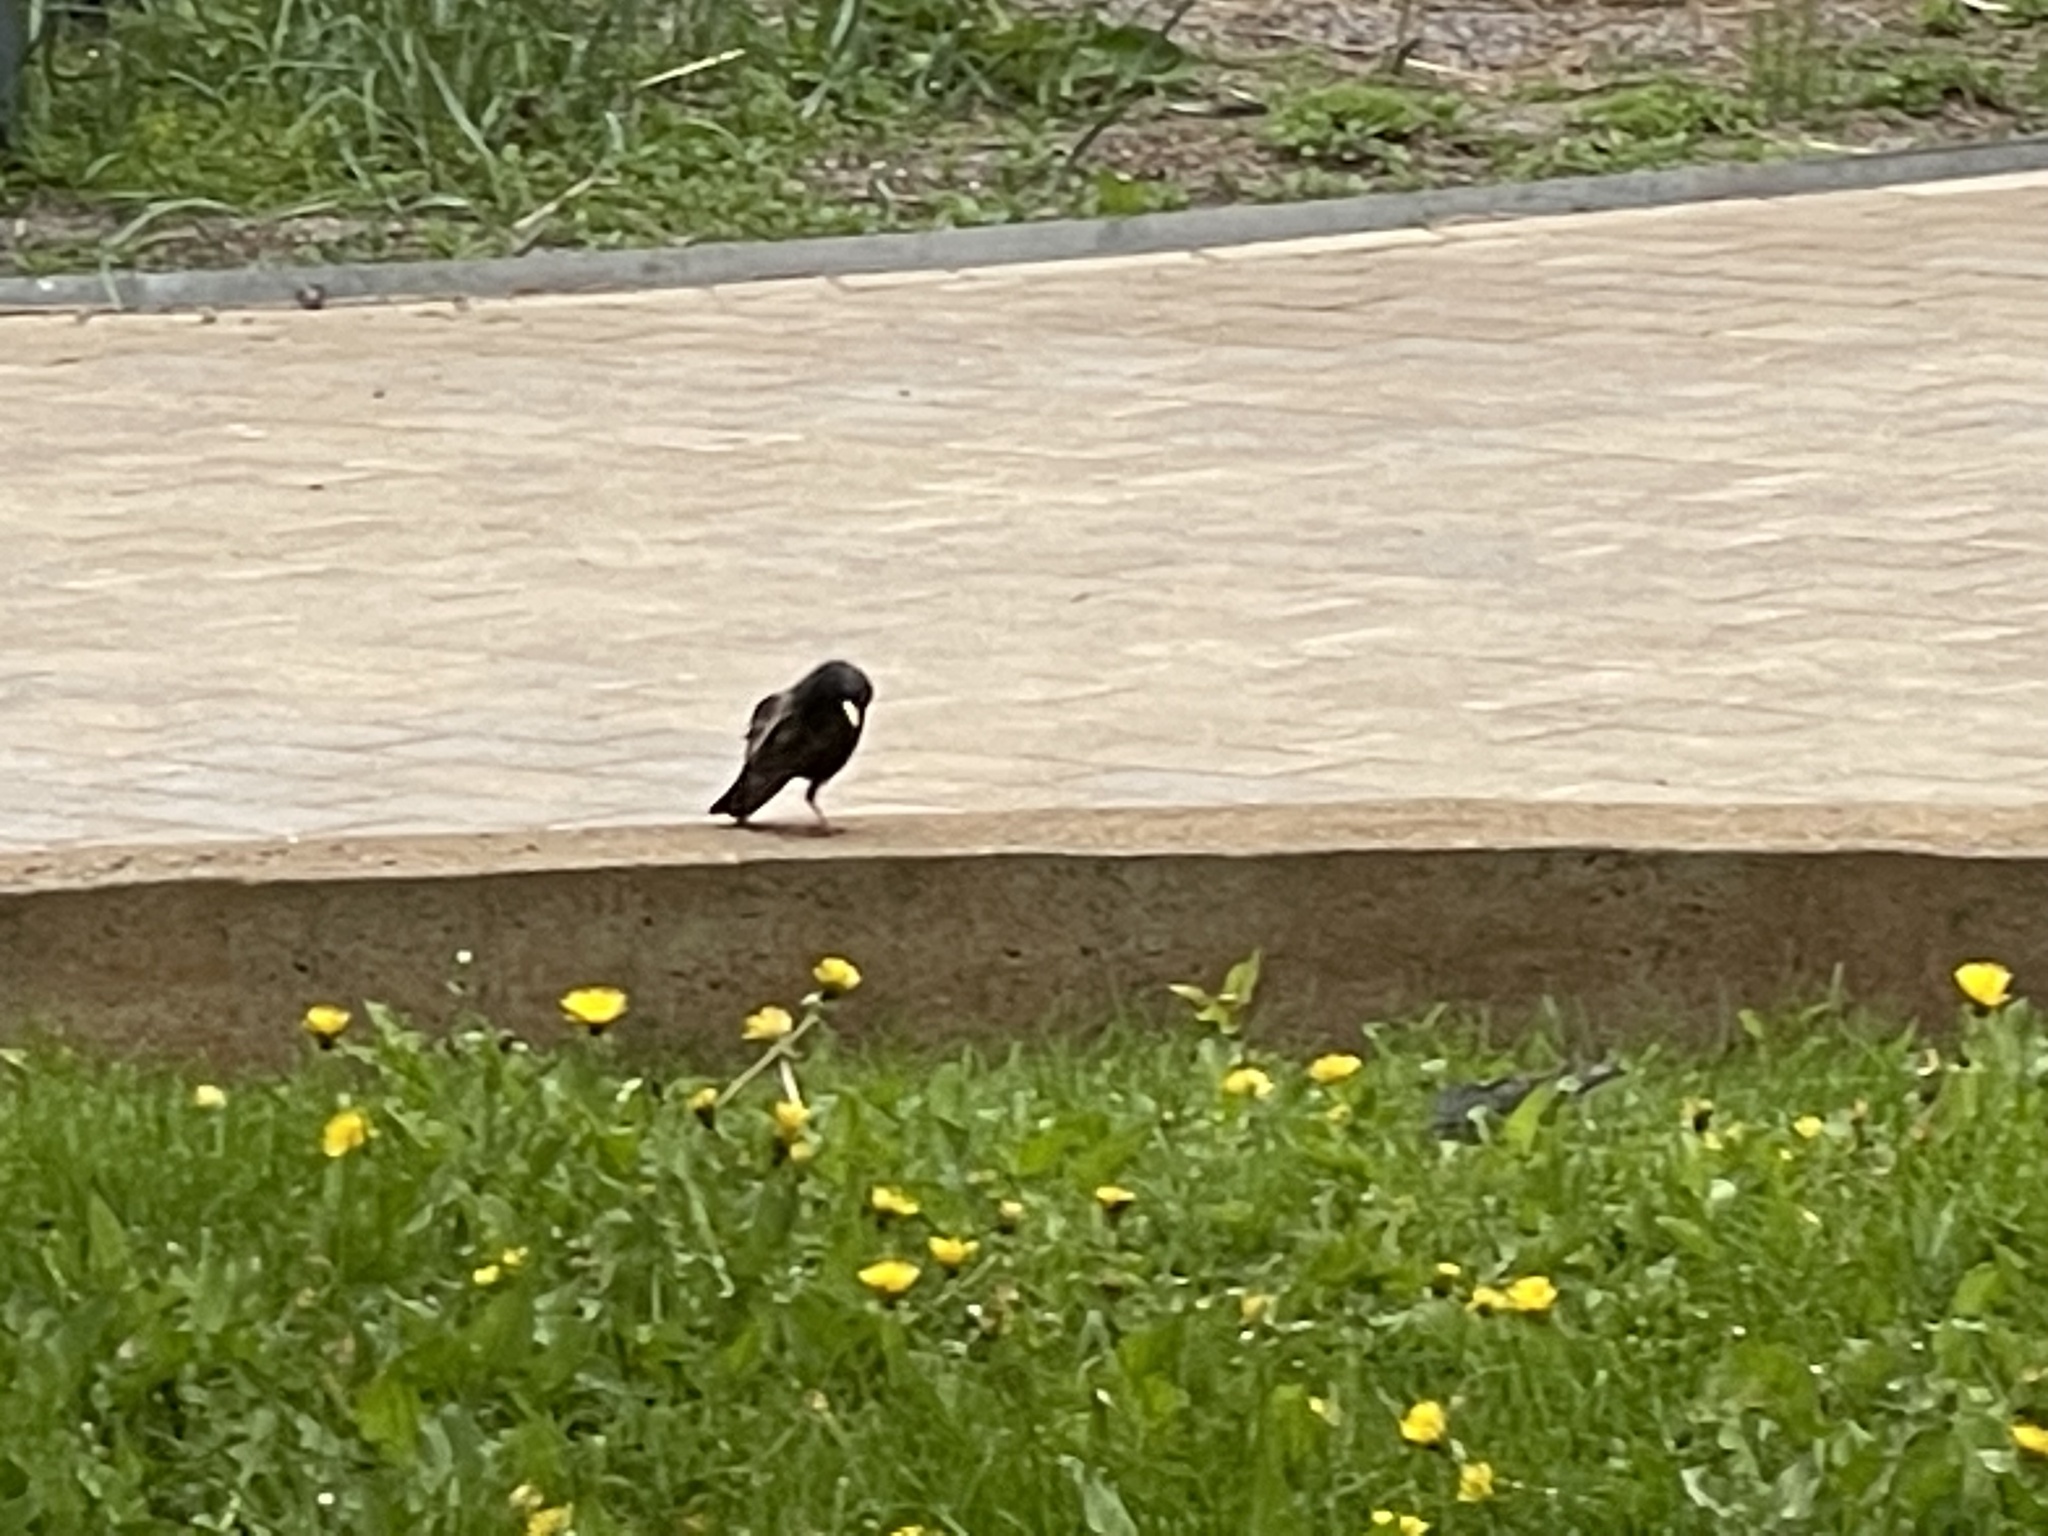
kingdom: Animalia
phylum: Chordata
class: Aves
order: Passeriformes
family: Sturnidae
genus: Sturnus
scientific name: Sturnus vulgaris
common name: Common starling
